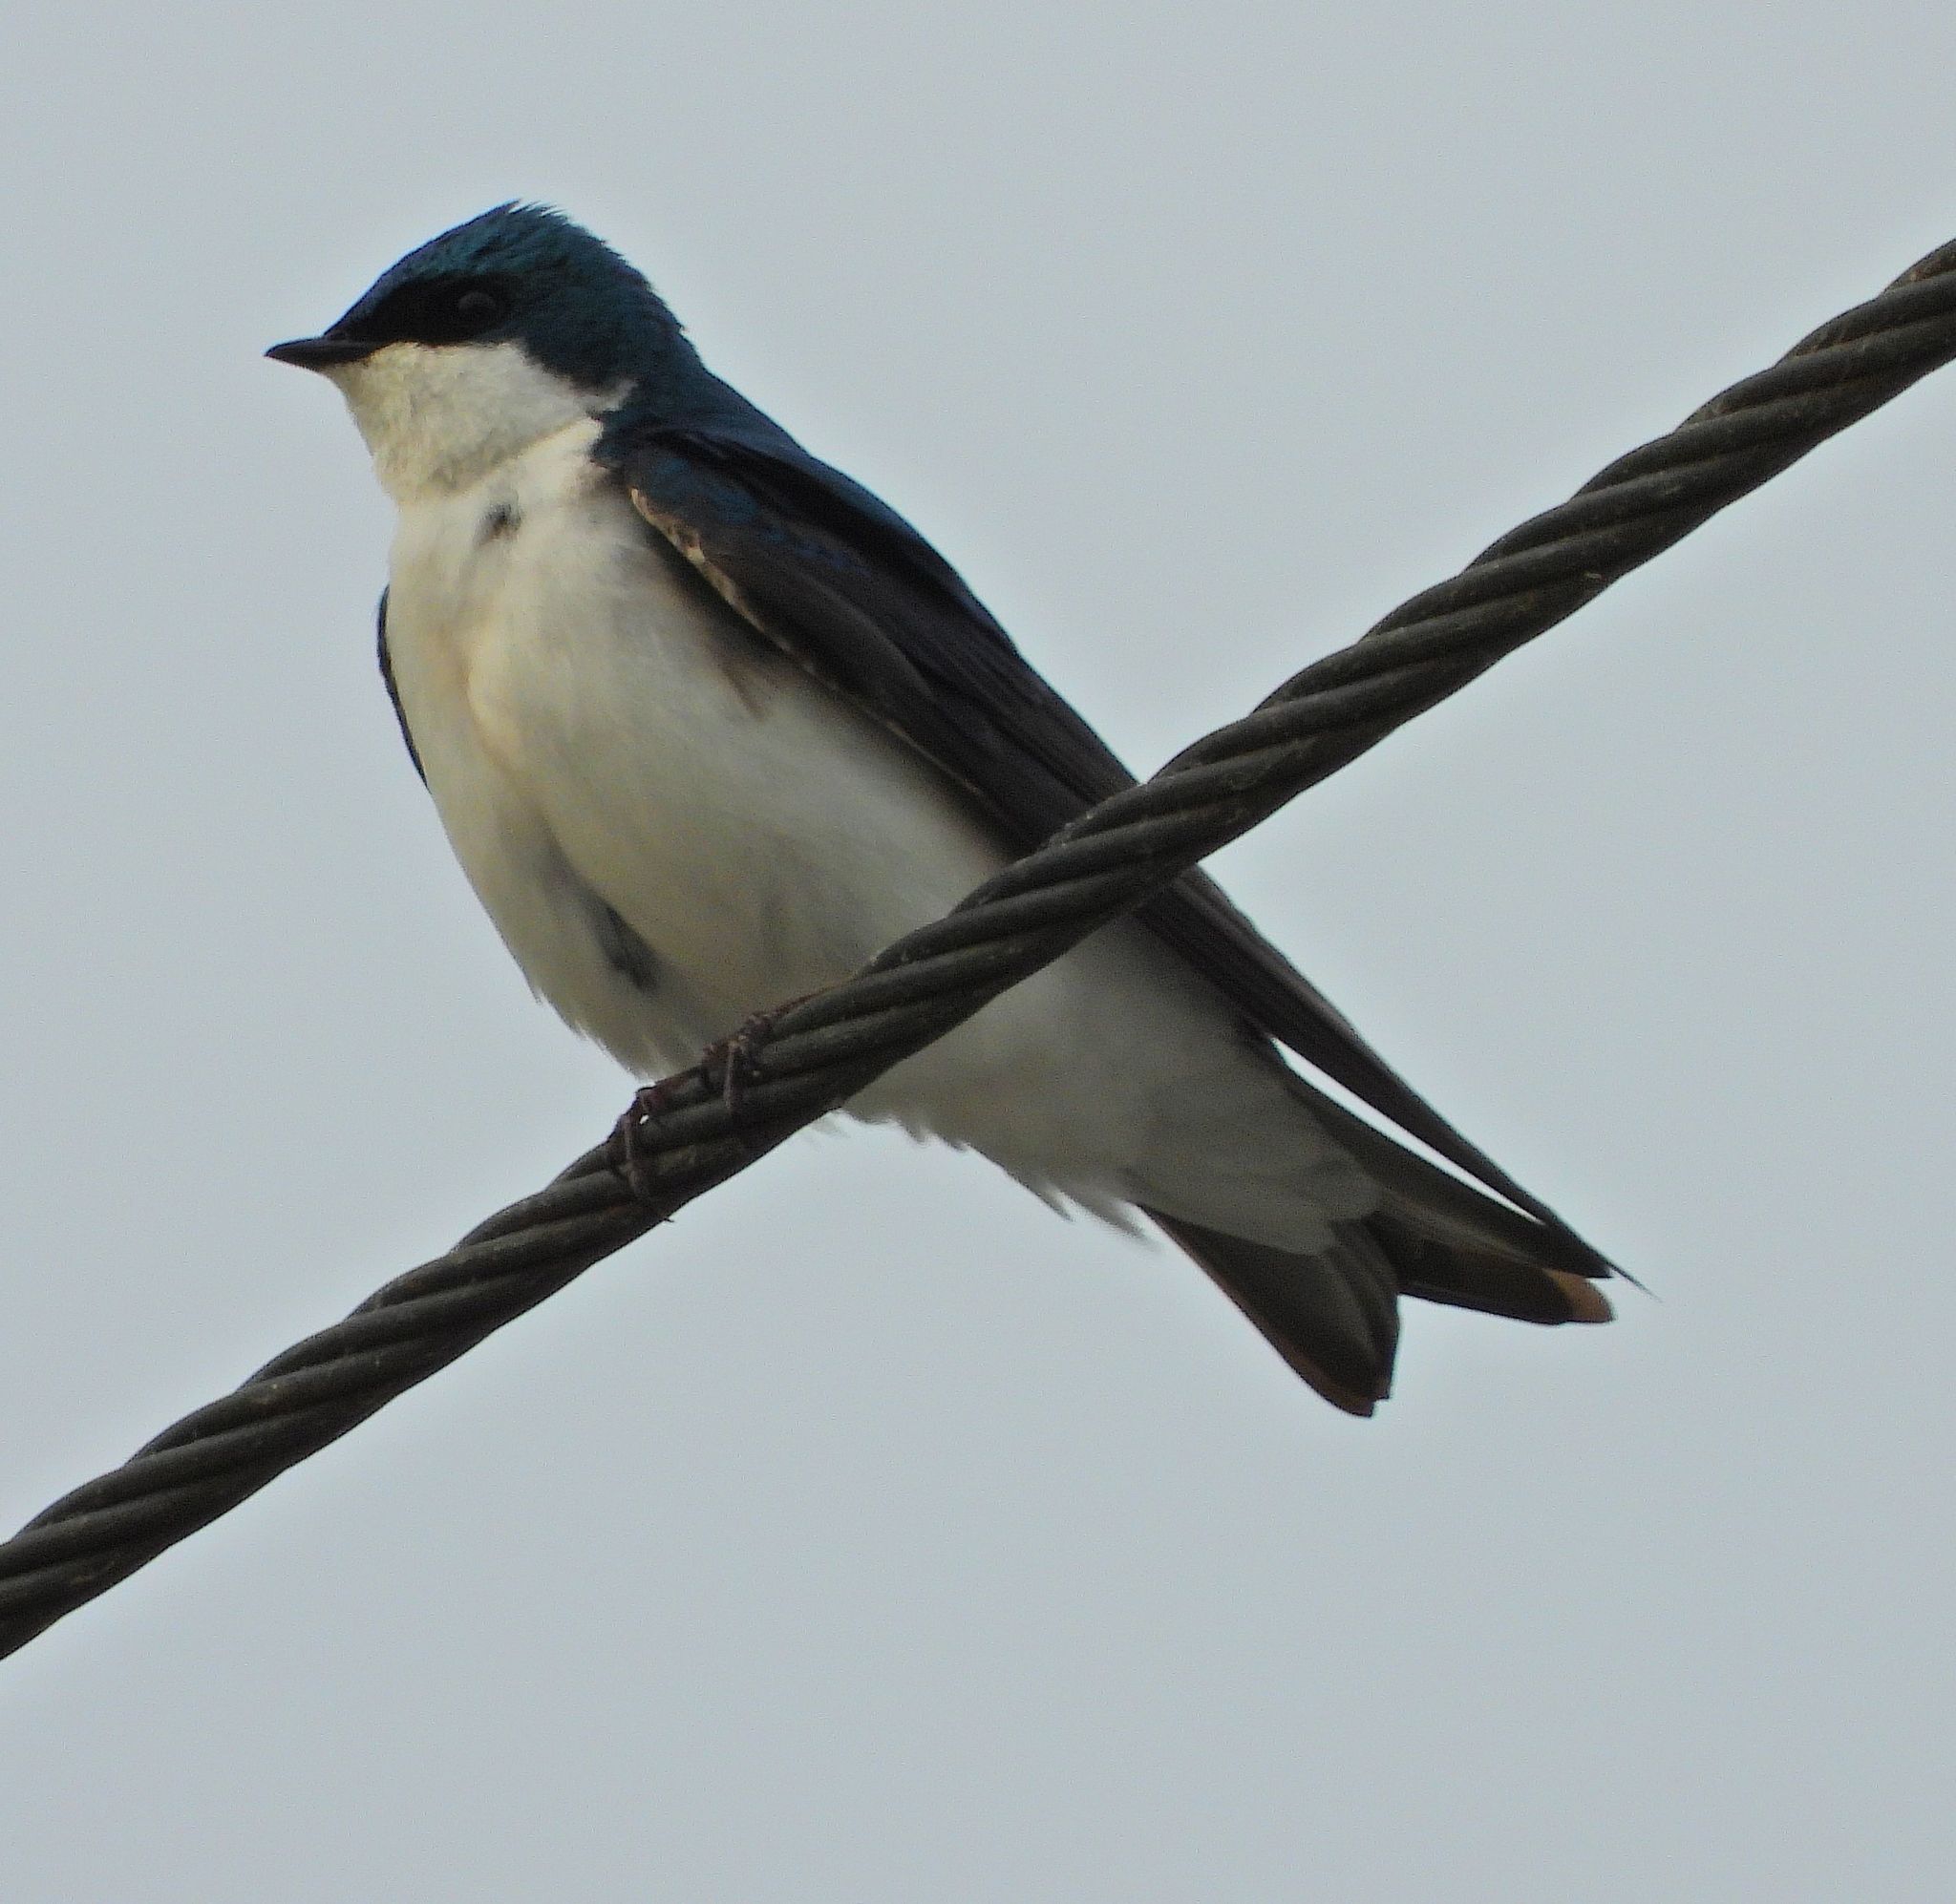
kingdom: Animalia
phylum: Chordata
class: Aves
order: Passeriformes
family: Hirundinidae
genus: Tachycineta
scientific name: Tachycineta bicolor
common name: Tree swallow
